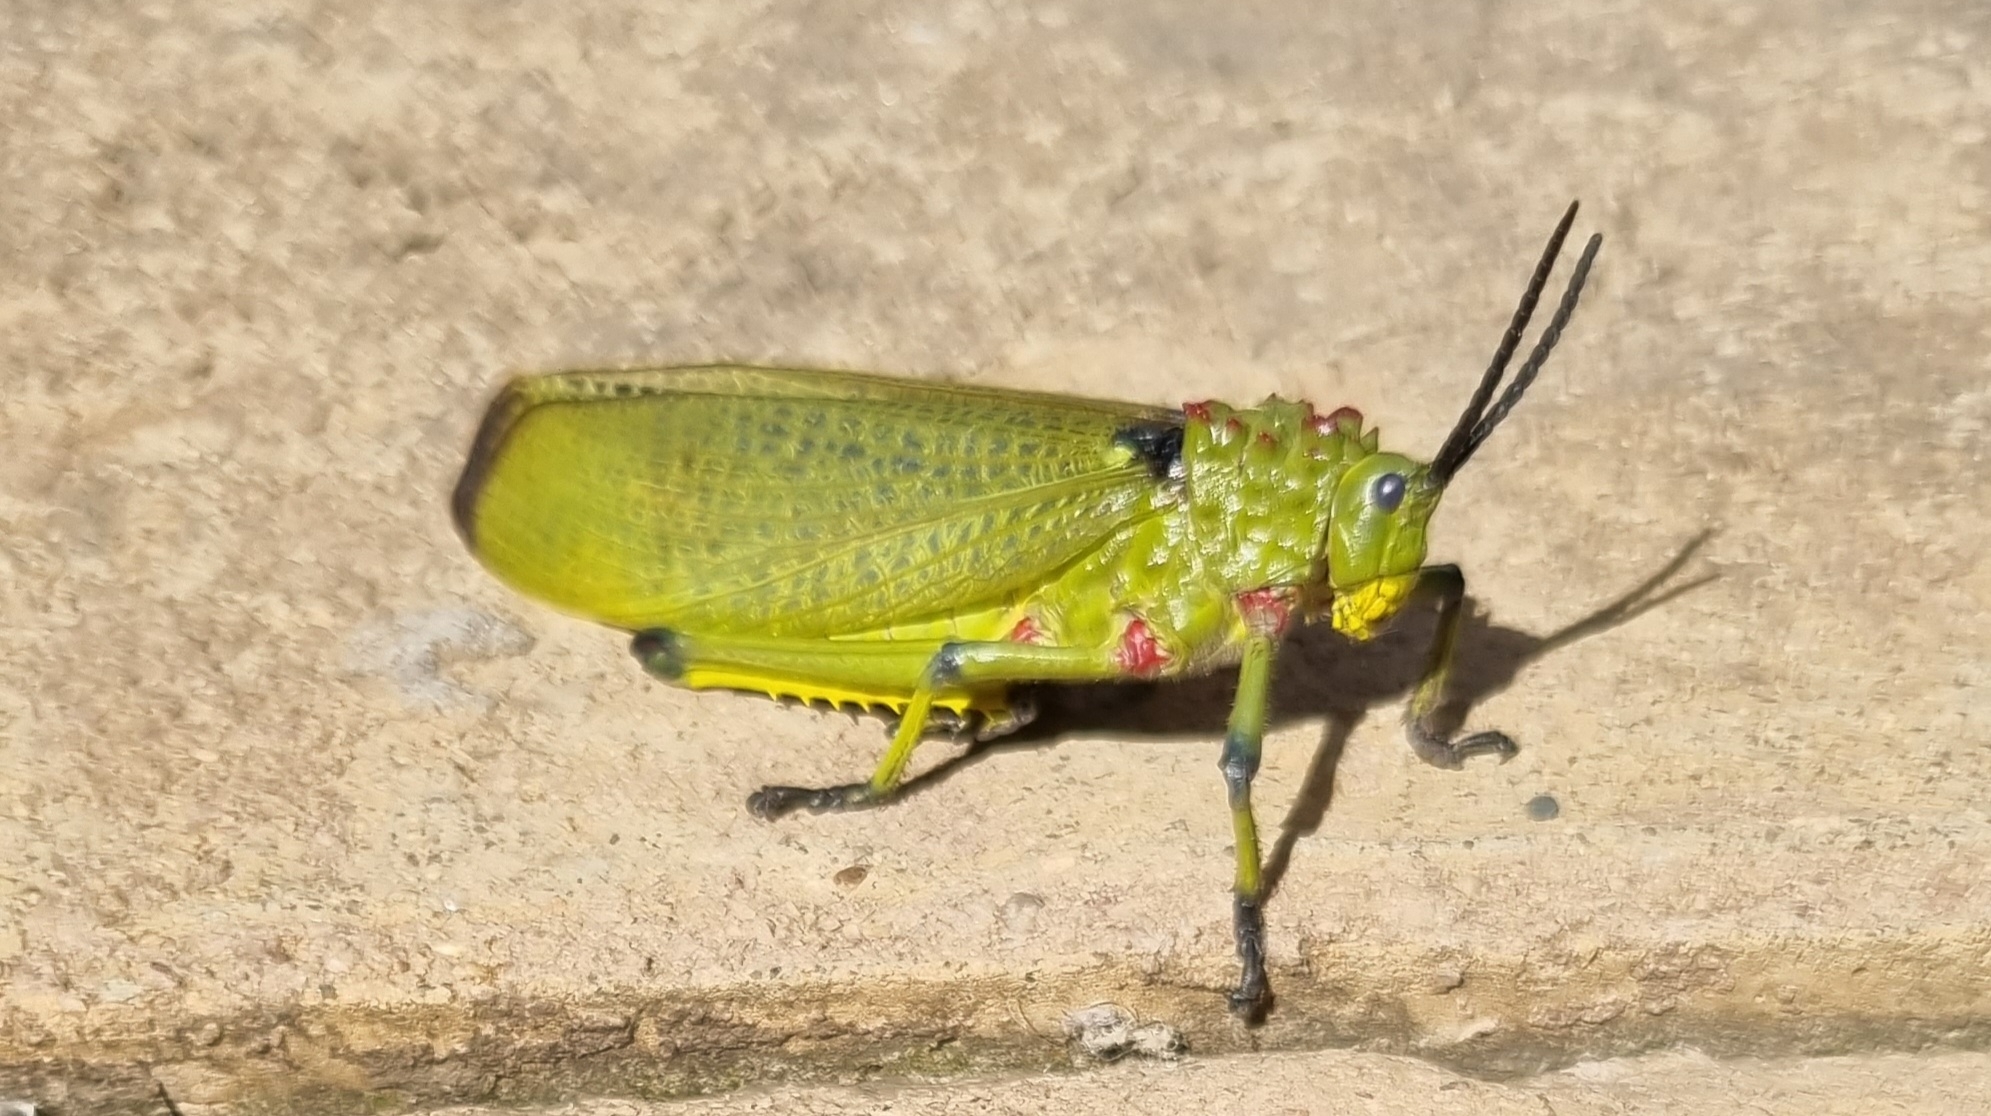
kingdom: Animalia
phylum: Arthropoda
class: Insecta
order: Orthoptera
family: Pyrgomorphidae
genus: Phymateus
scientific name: Phymateus viridipes
